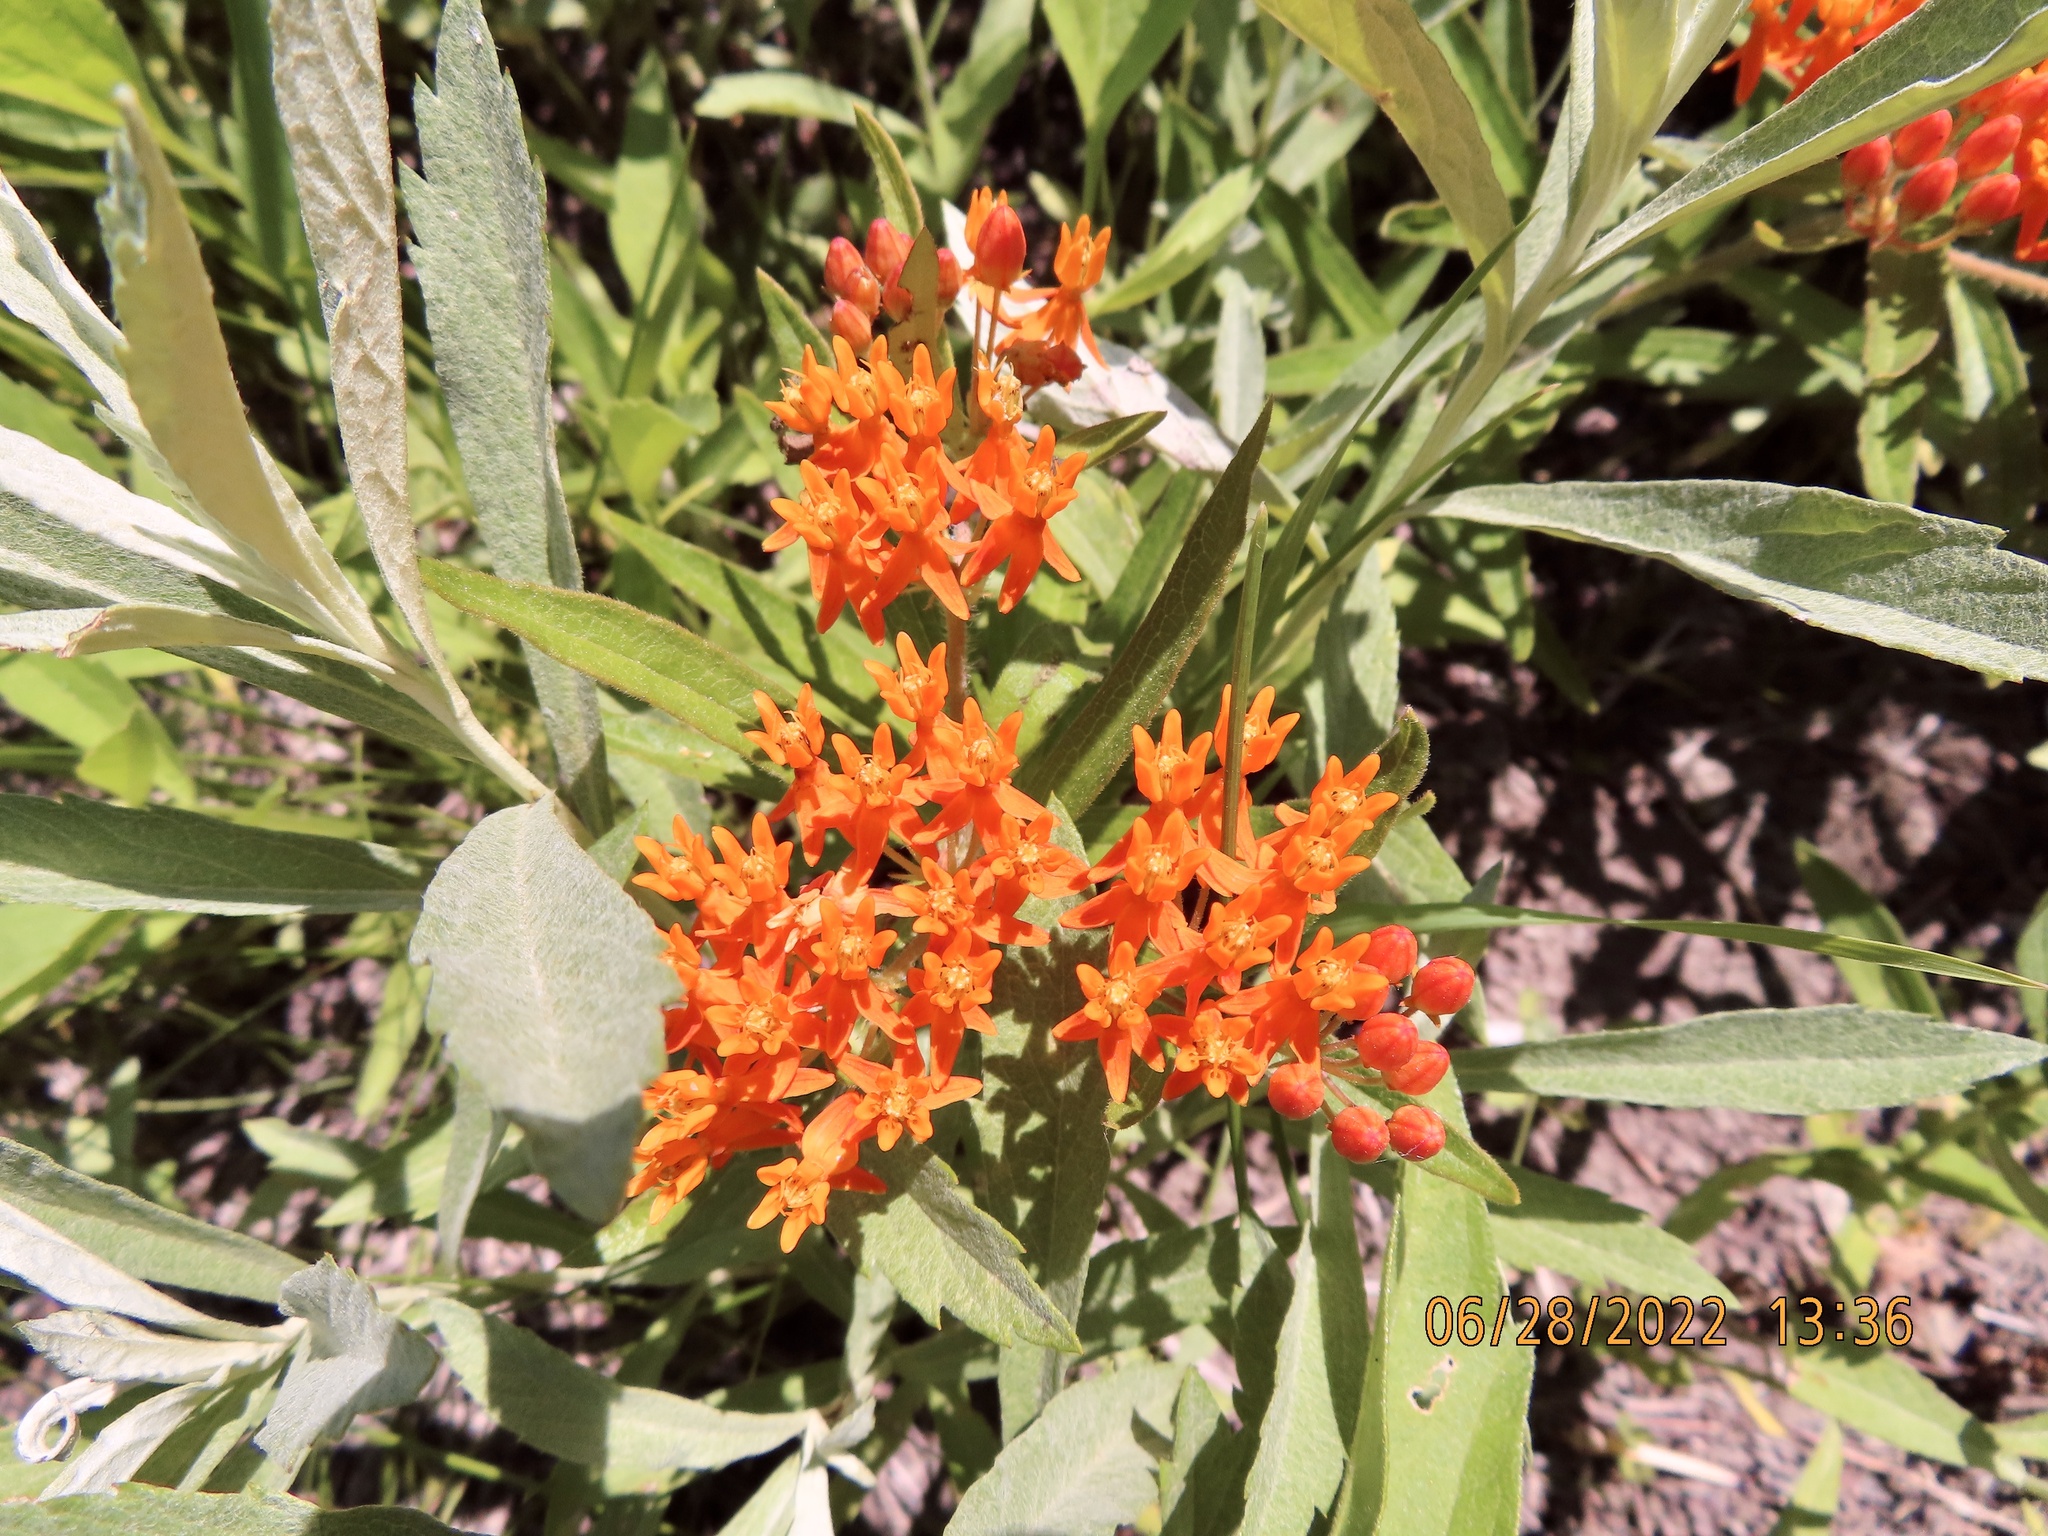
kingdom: Plantae
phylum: Tracheophyta
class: Magnoliopsida
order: Gentianales
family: Apocynaceae
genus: Asclepias
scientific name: Asclepias tuberosa
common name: Butterfly milkweed
